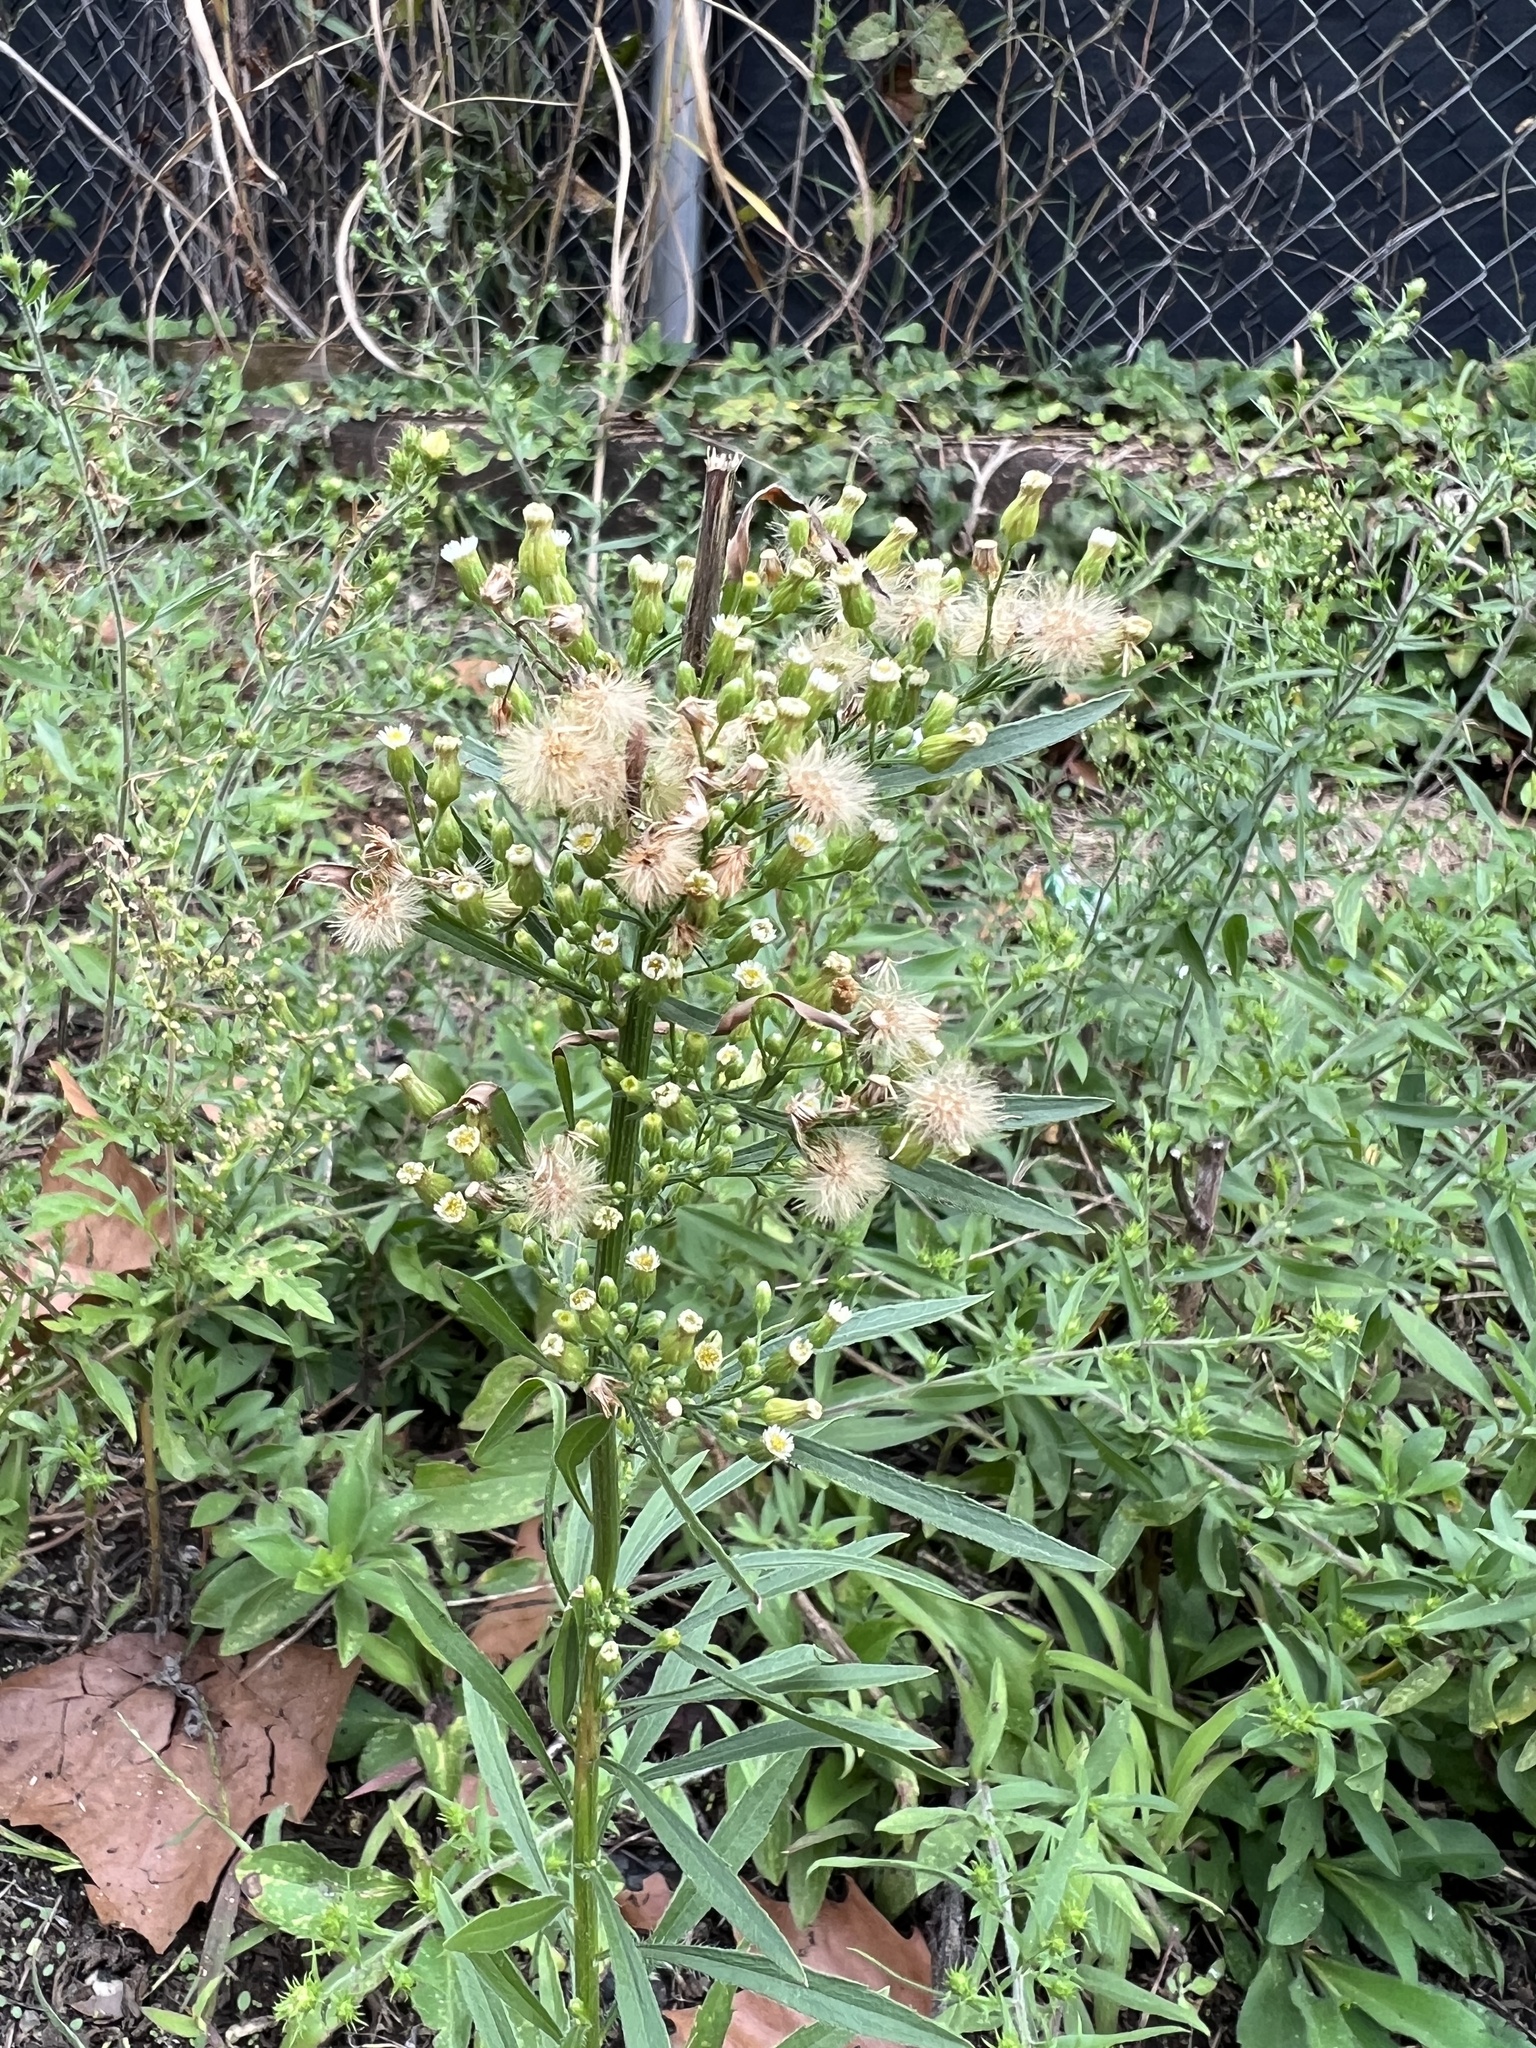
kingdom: Plantae
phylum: Tracheophyta
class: Magnoliopsida
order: Asterales
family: Asteraceae
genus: Erigeron
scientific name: Erigeron canadensis
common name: Canadian fleabane
